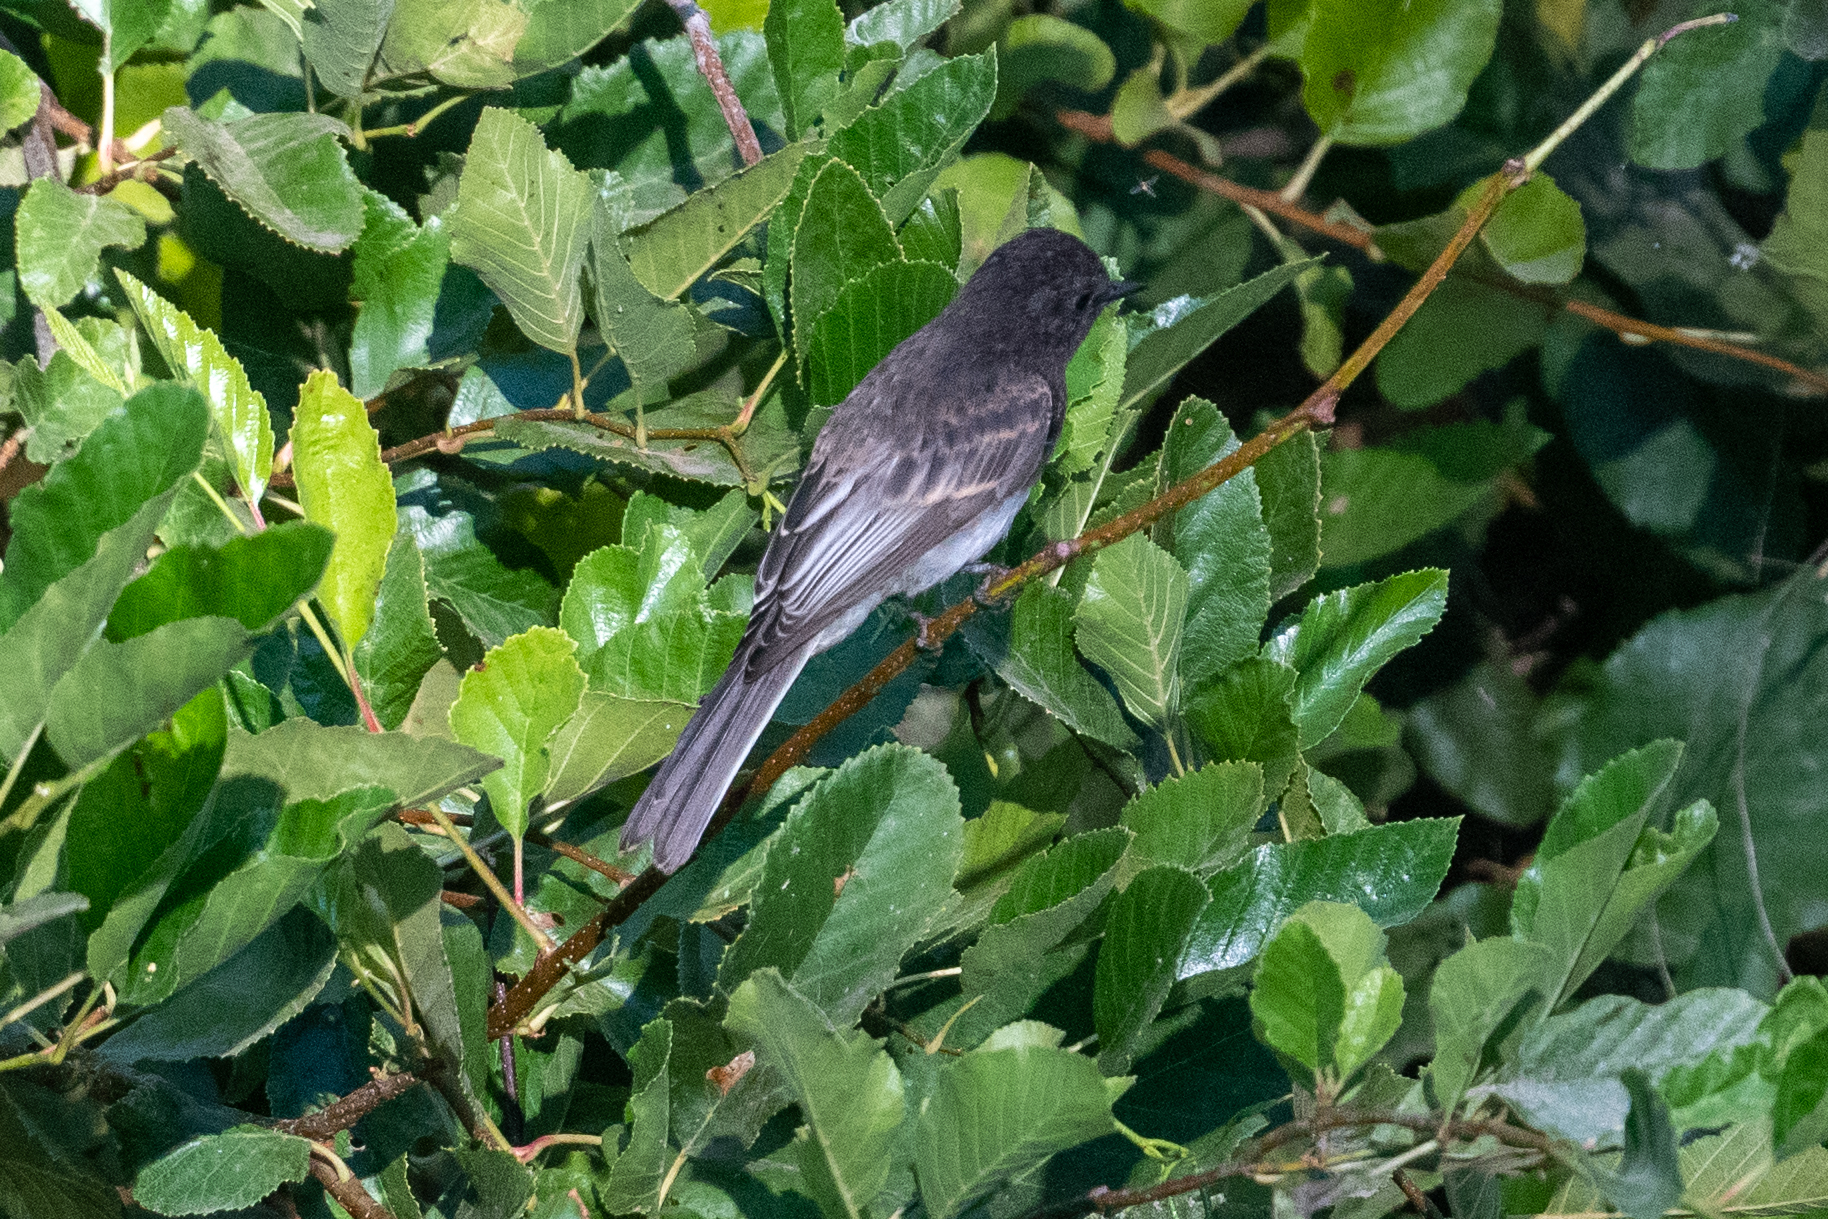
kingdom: Animalia
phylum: Chordata
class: Aves
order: Passeriformes
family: Tyrannidae
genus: Sayornis
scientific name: Sayornis nigricans
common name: Black phoebe
